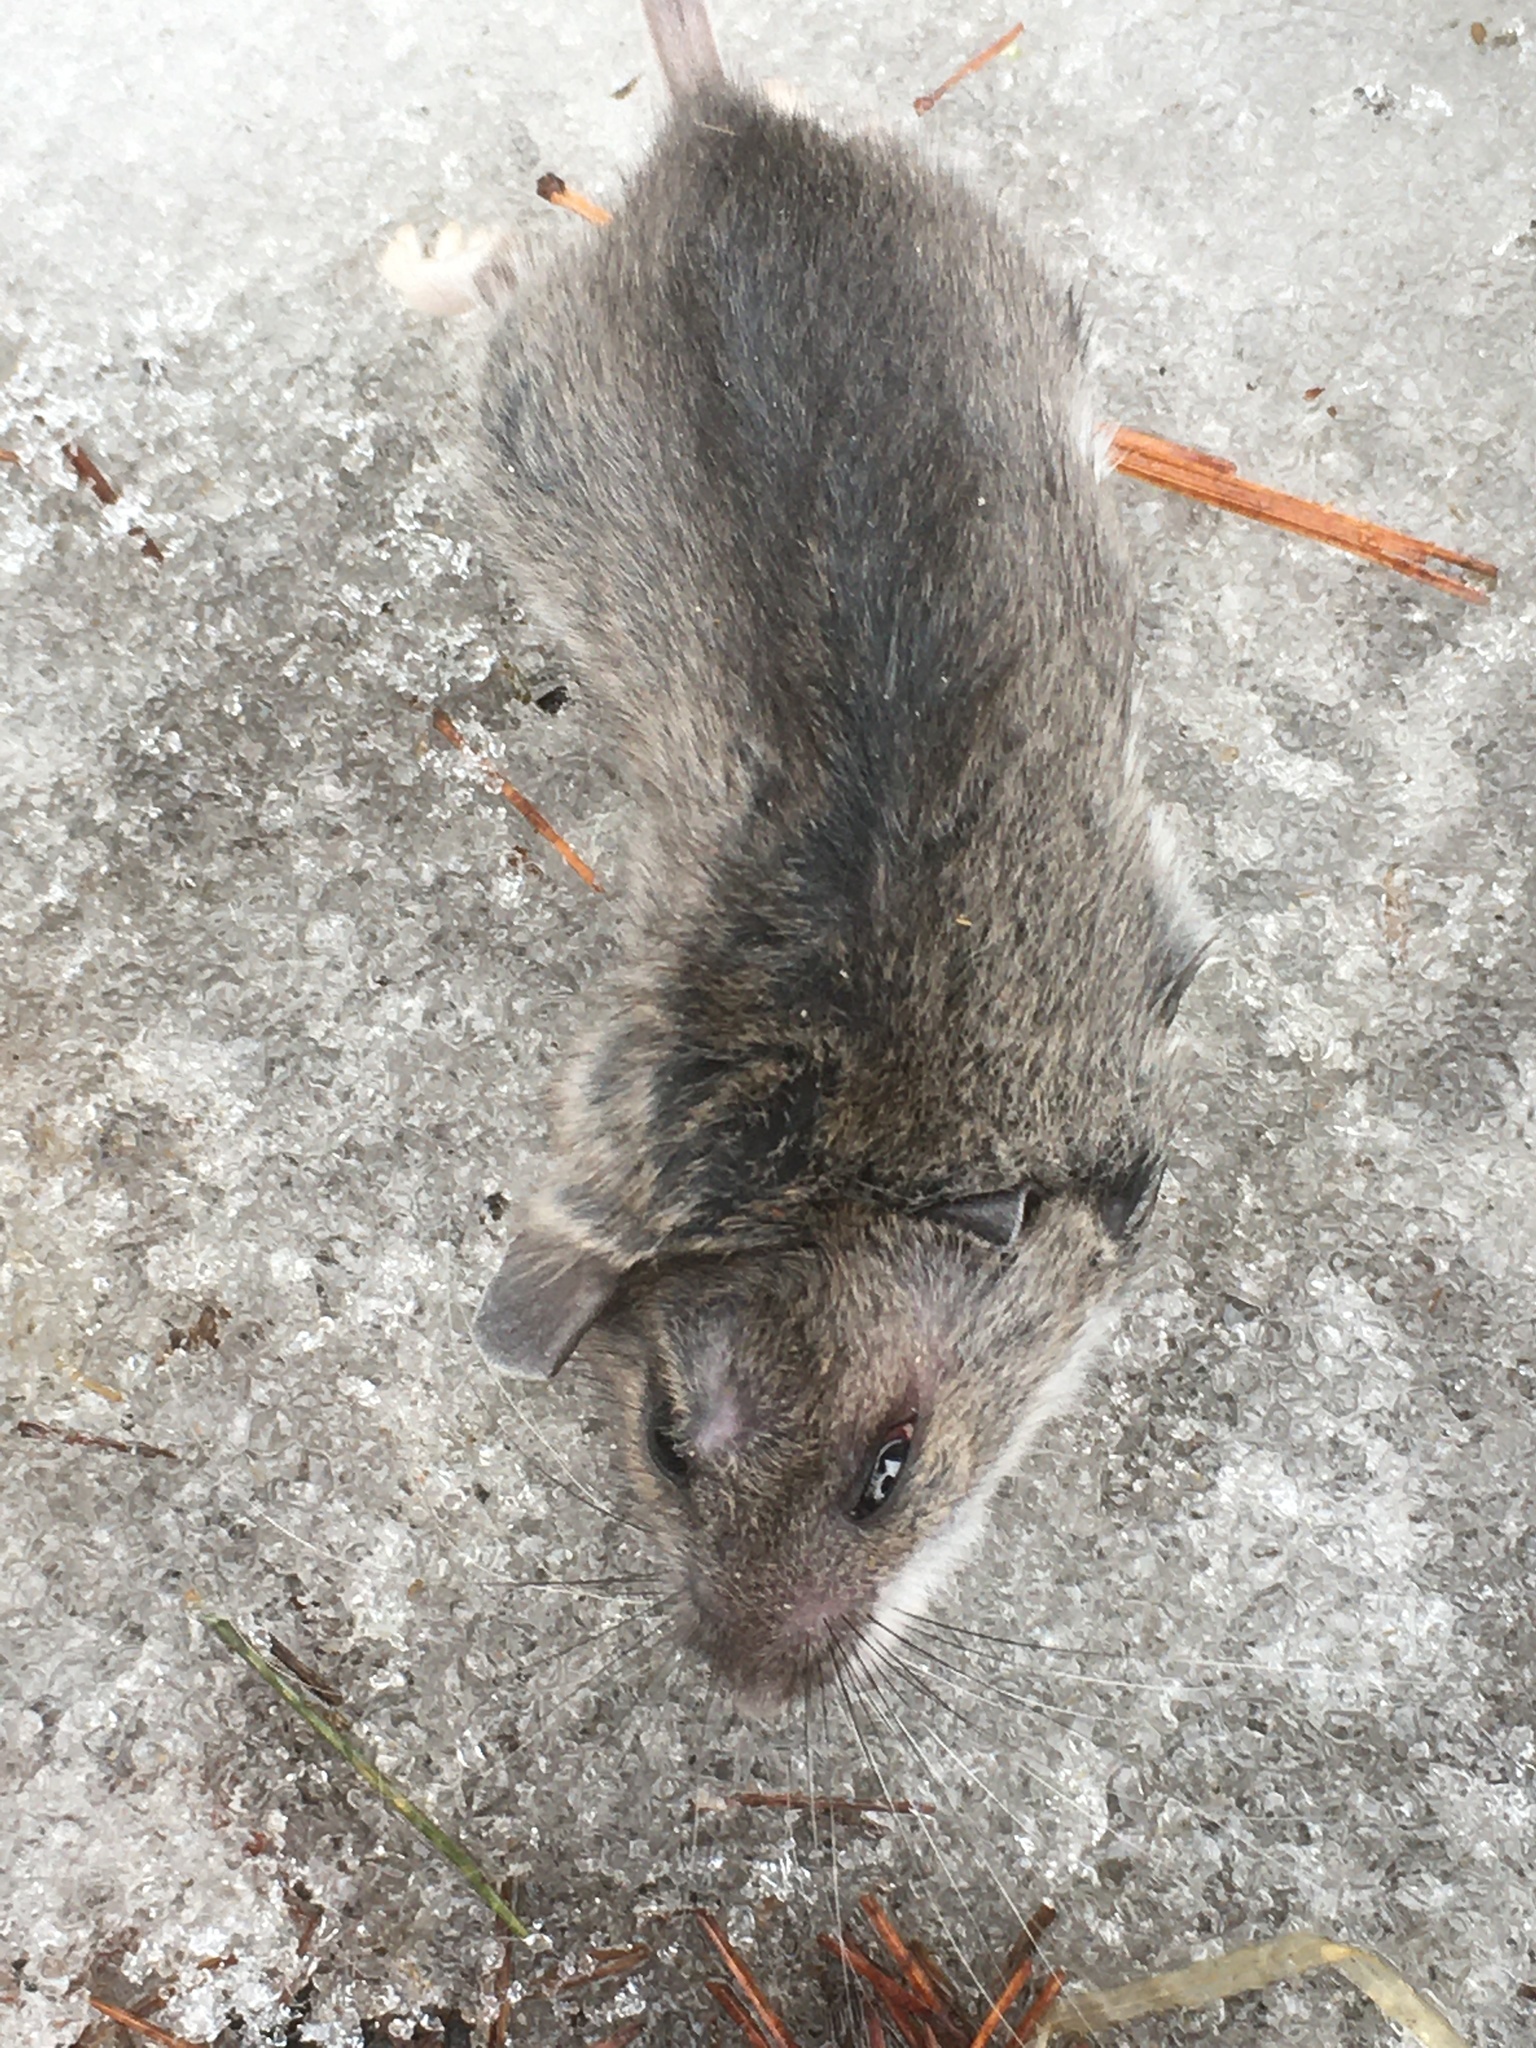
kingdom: Animalia
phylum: Chordata
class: Mammalia
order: Rodentia
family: Cricetidae
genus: Peromyscus
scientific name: Peromyscus
